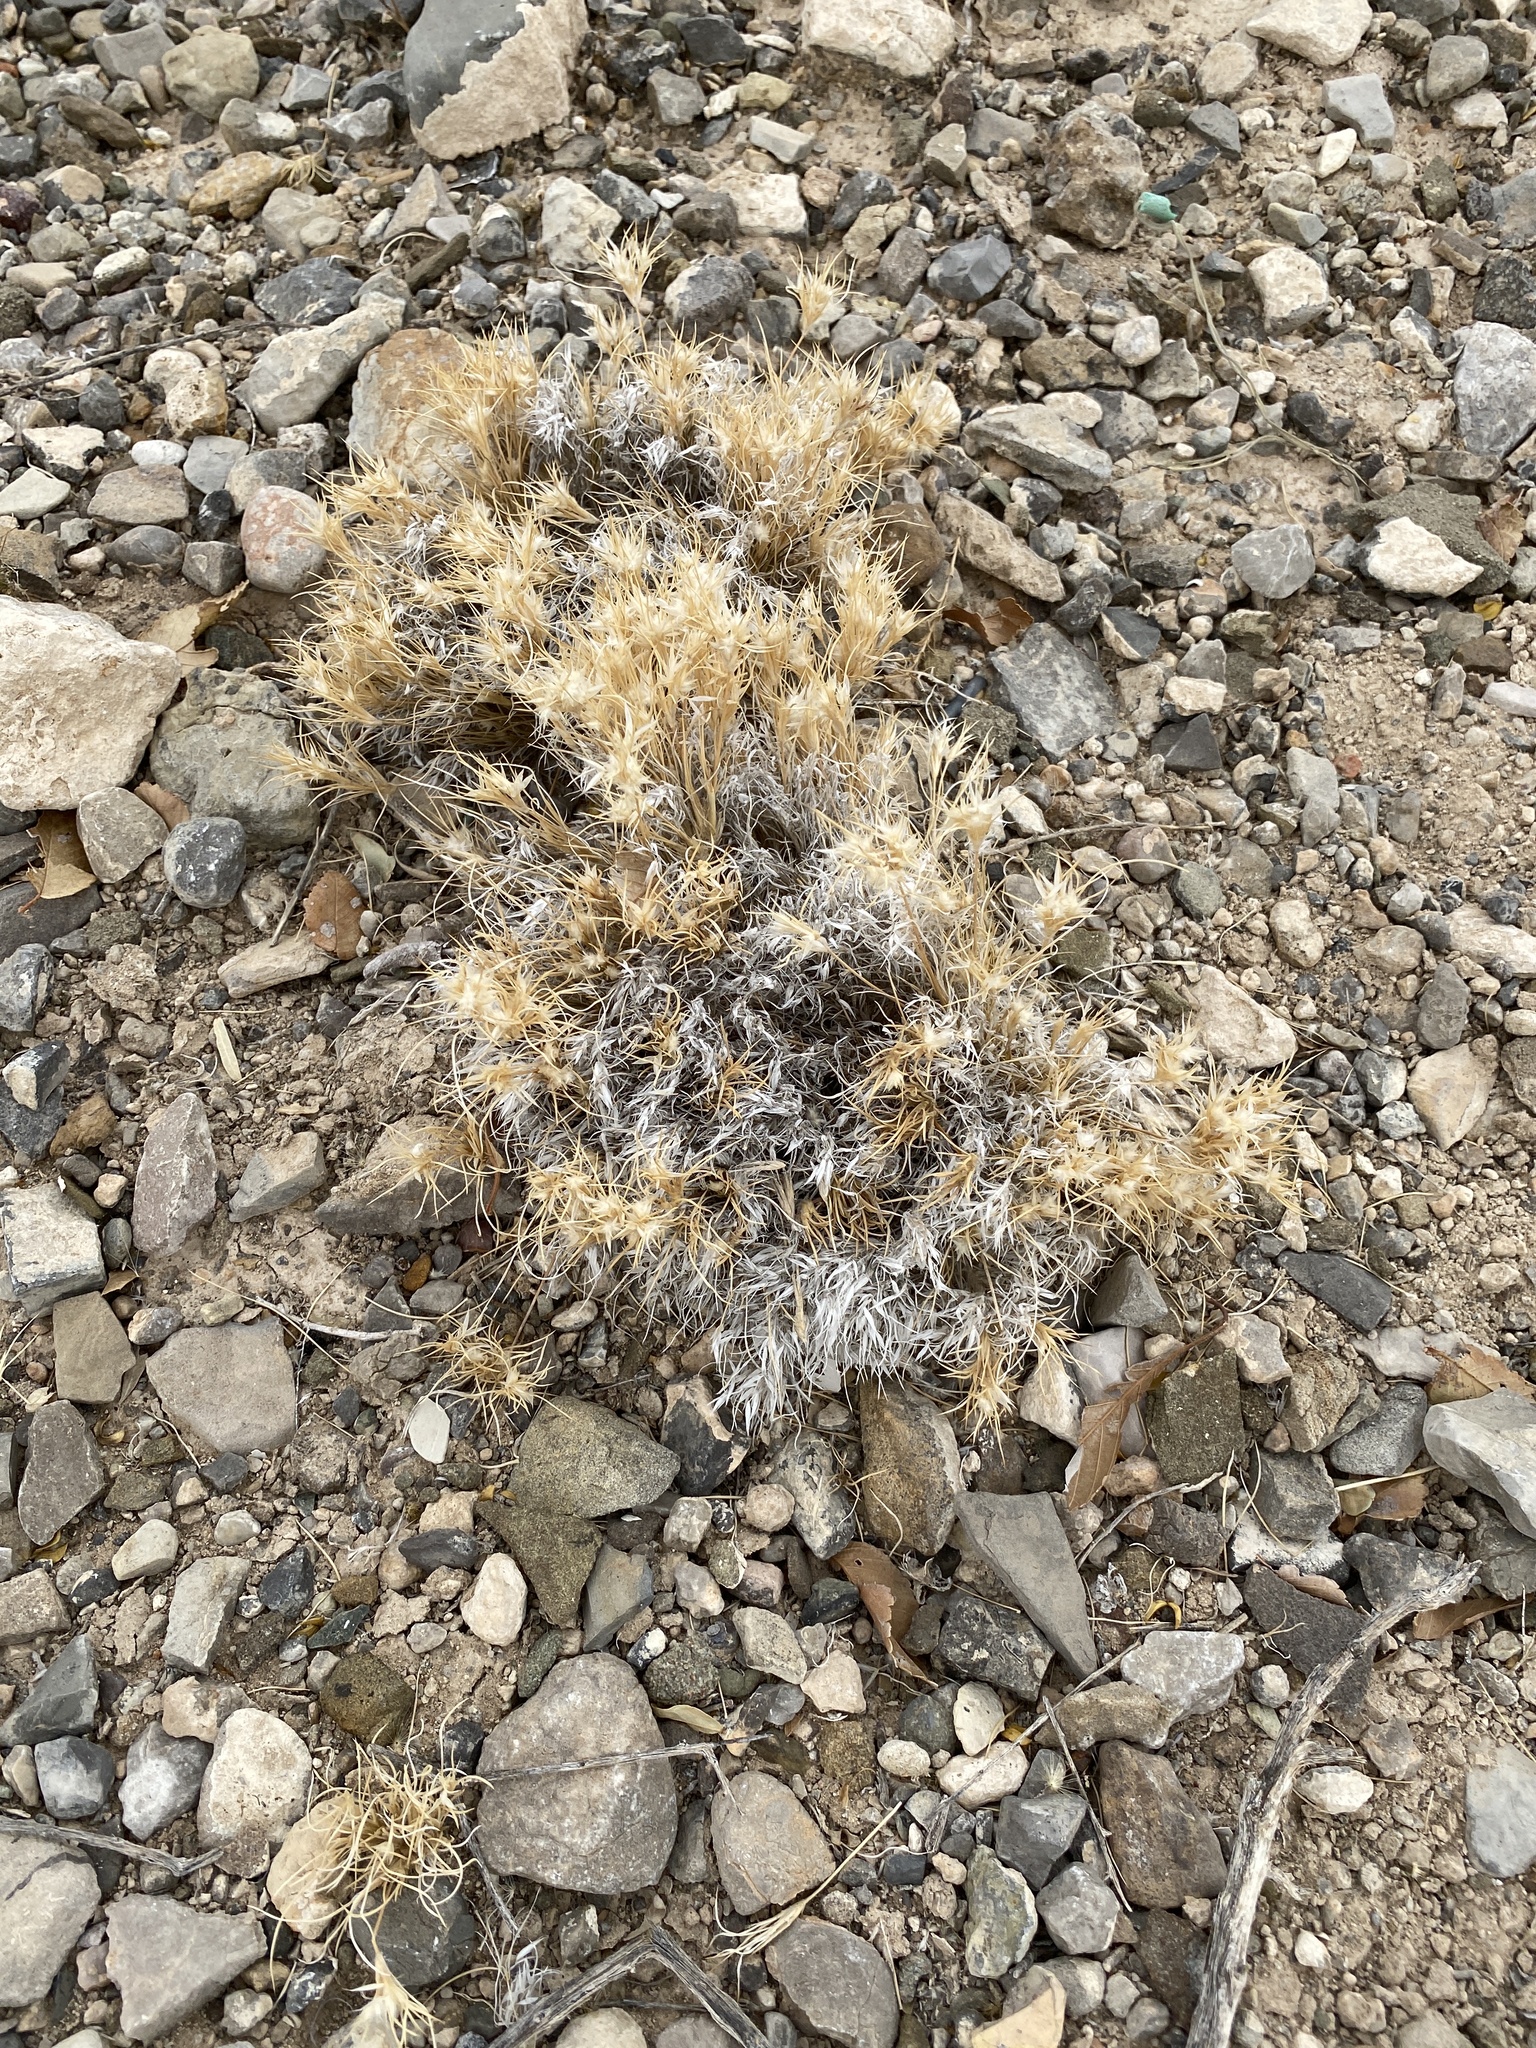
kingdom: Plantae
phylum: Tracheophyta
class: Liliopsida
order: Poales
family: Poaceae
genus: Dasyochloa
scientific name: Dasyochloa pulchella
